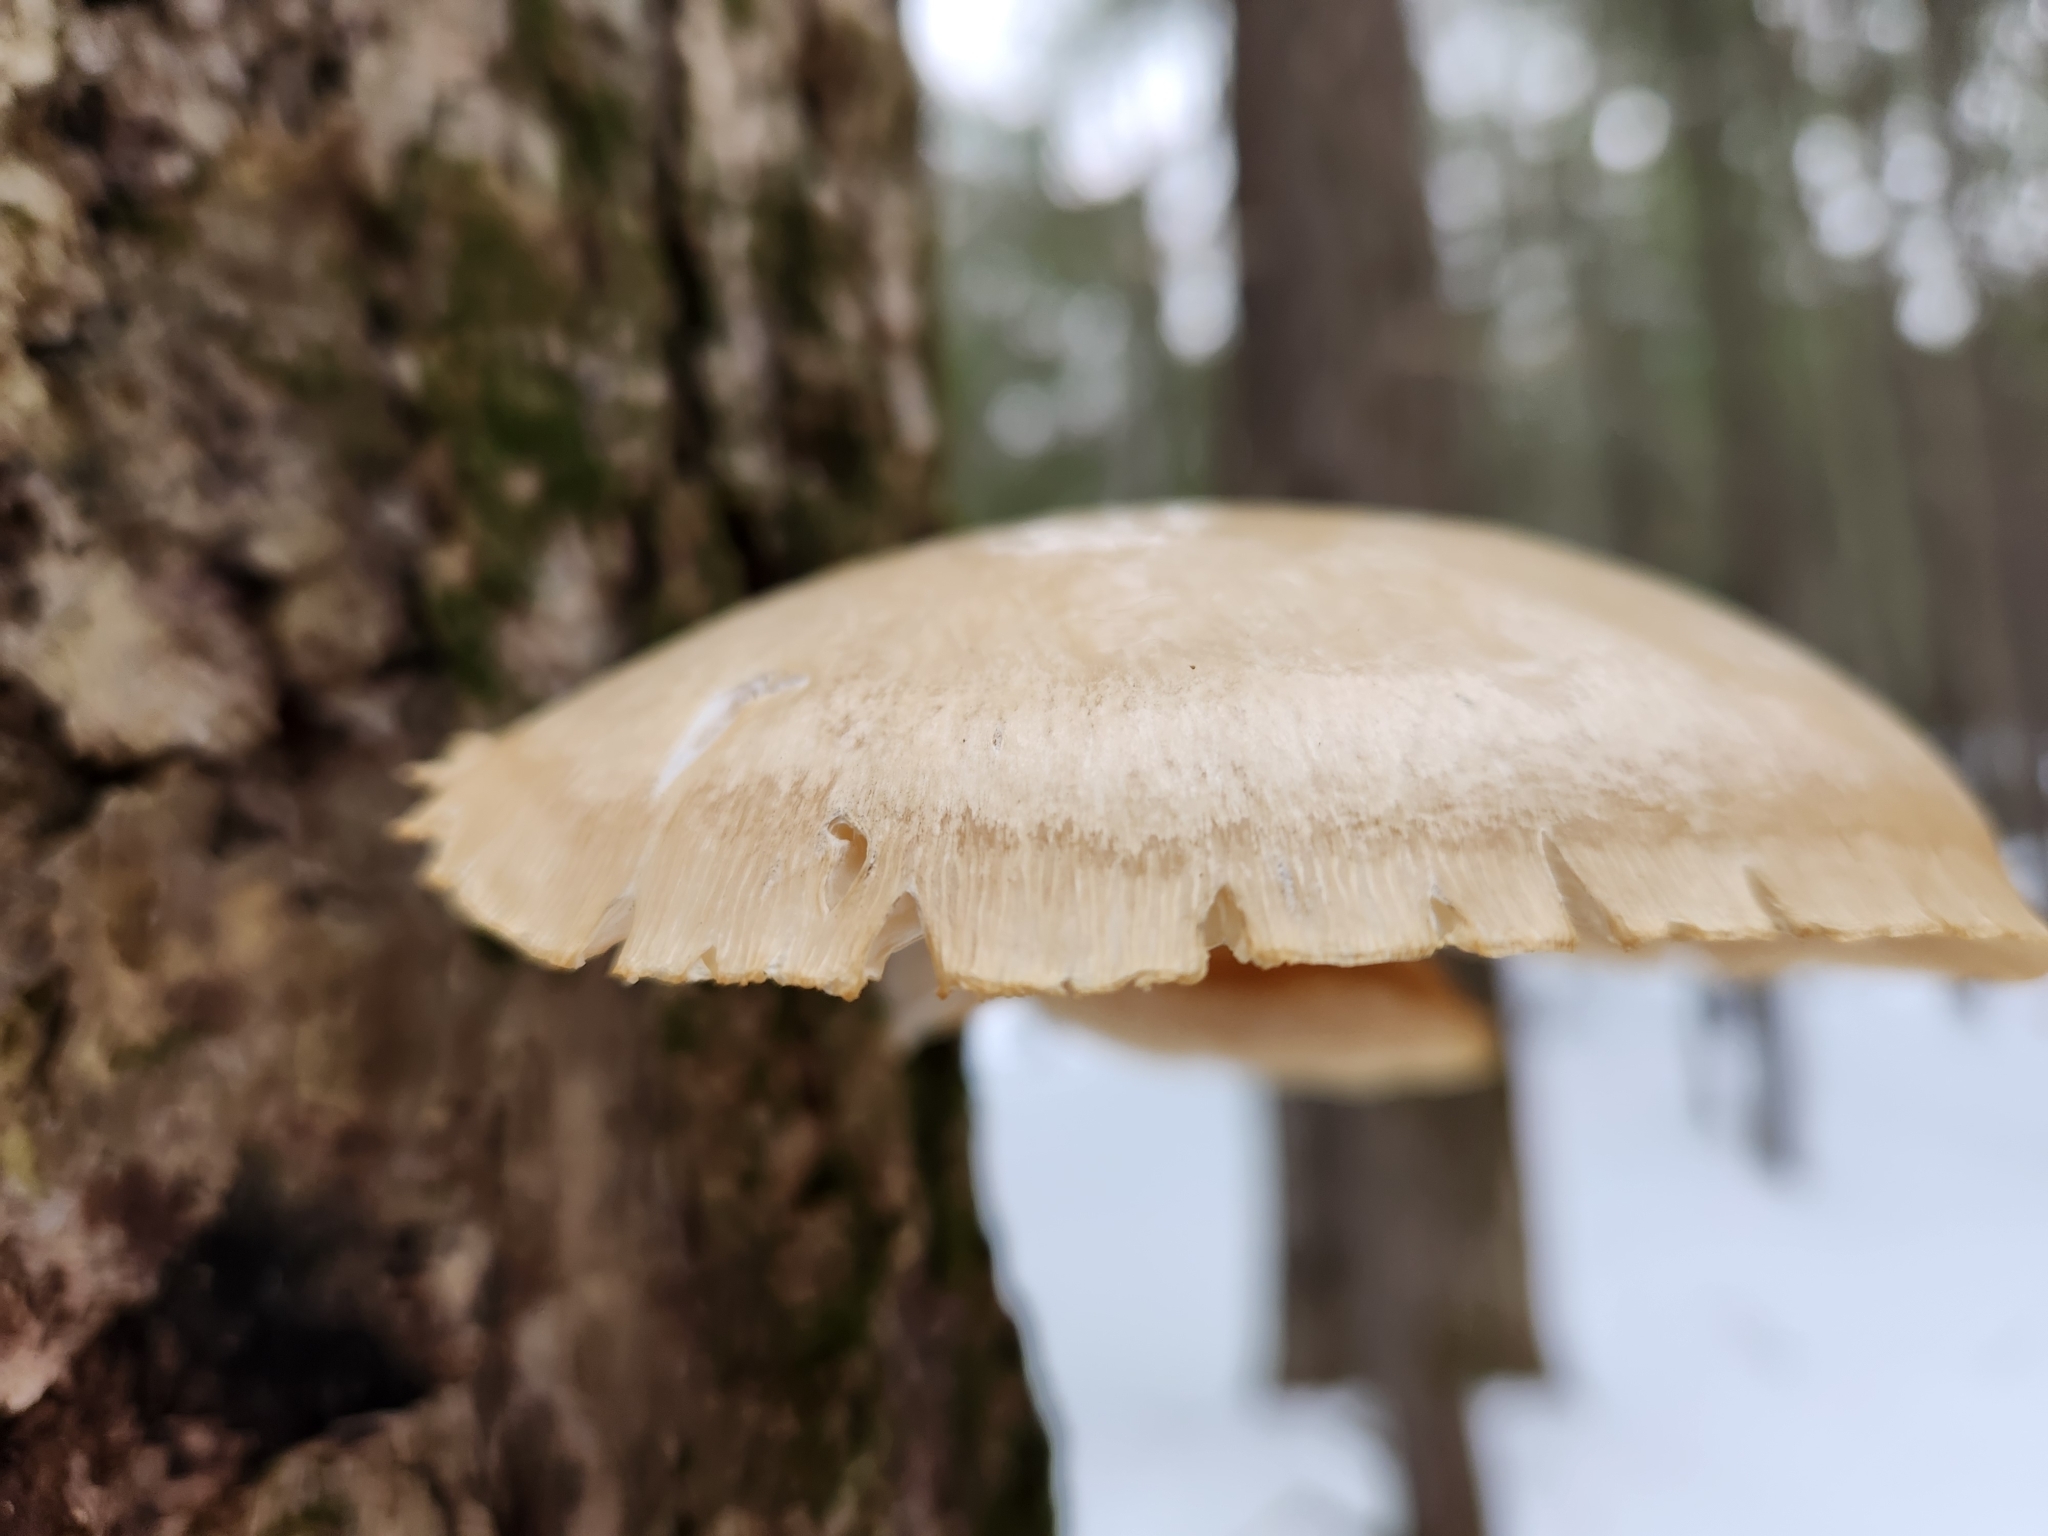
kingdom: Fungi
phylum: Basidiomycota
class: Agaricomycetes
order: Agaricales
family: Pleurotaceae
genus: Pleurotus
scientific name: Pleurotus ostreatus
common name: Oyster mushroom
